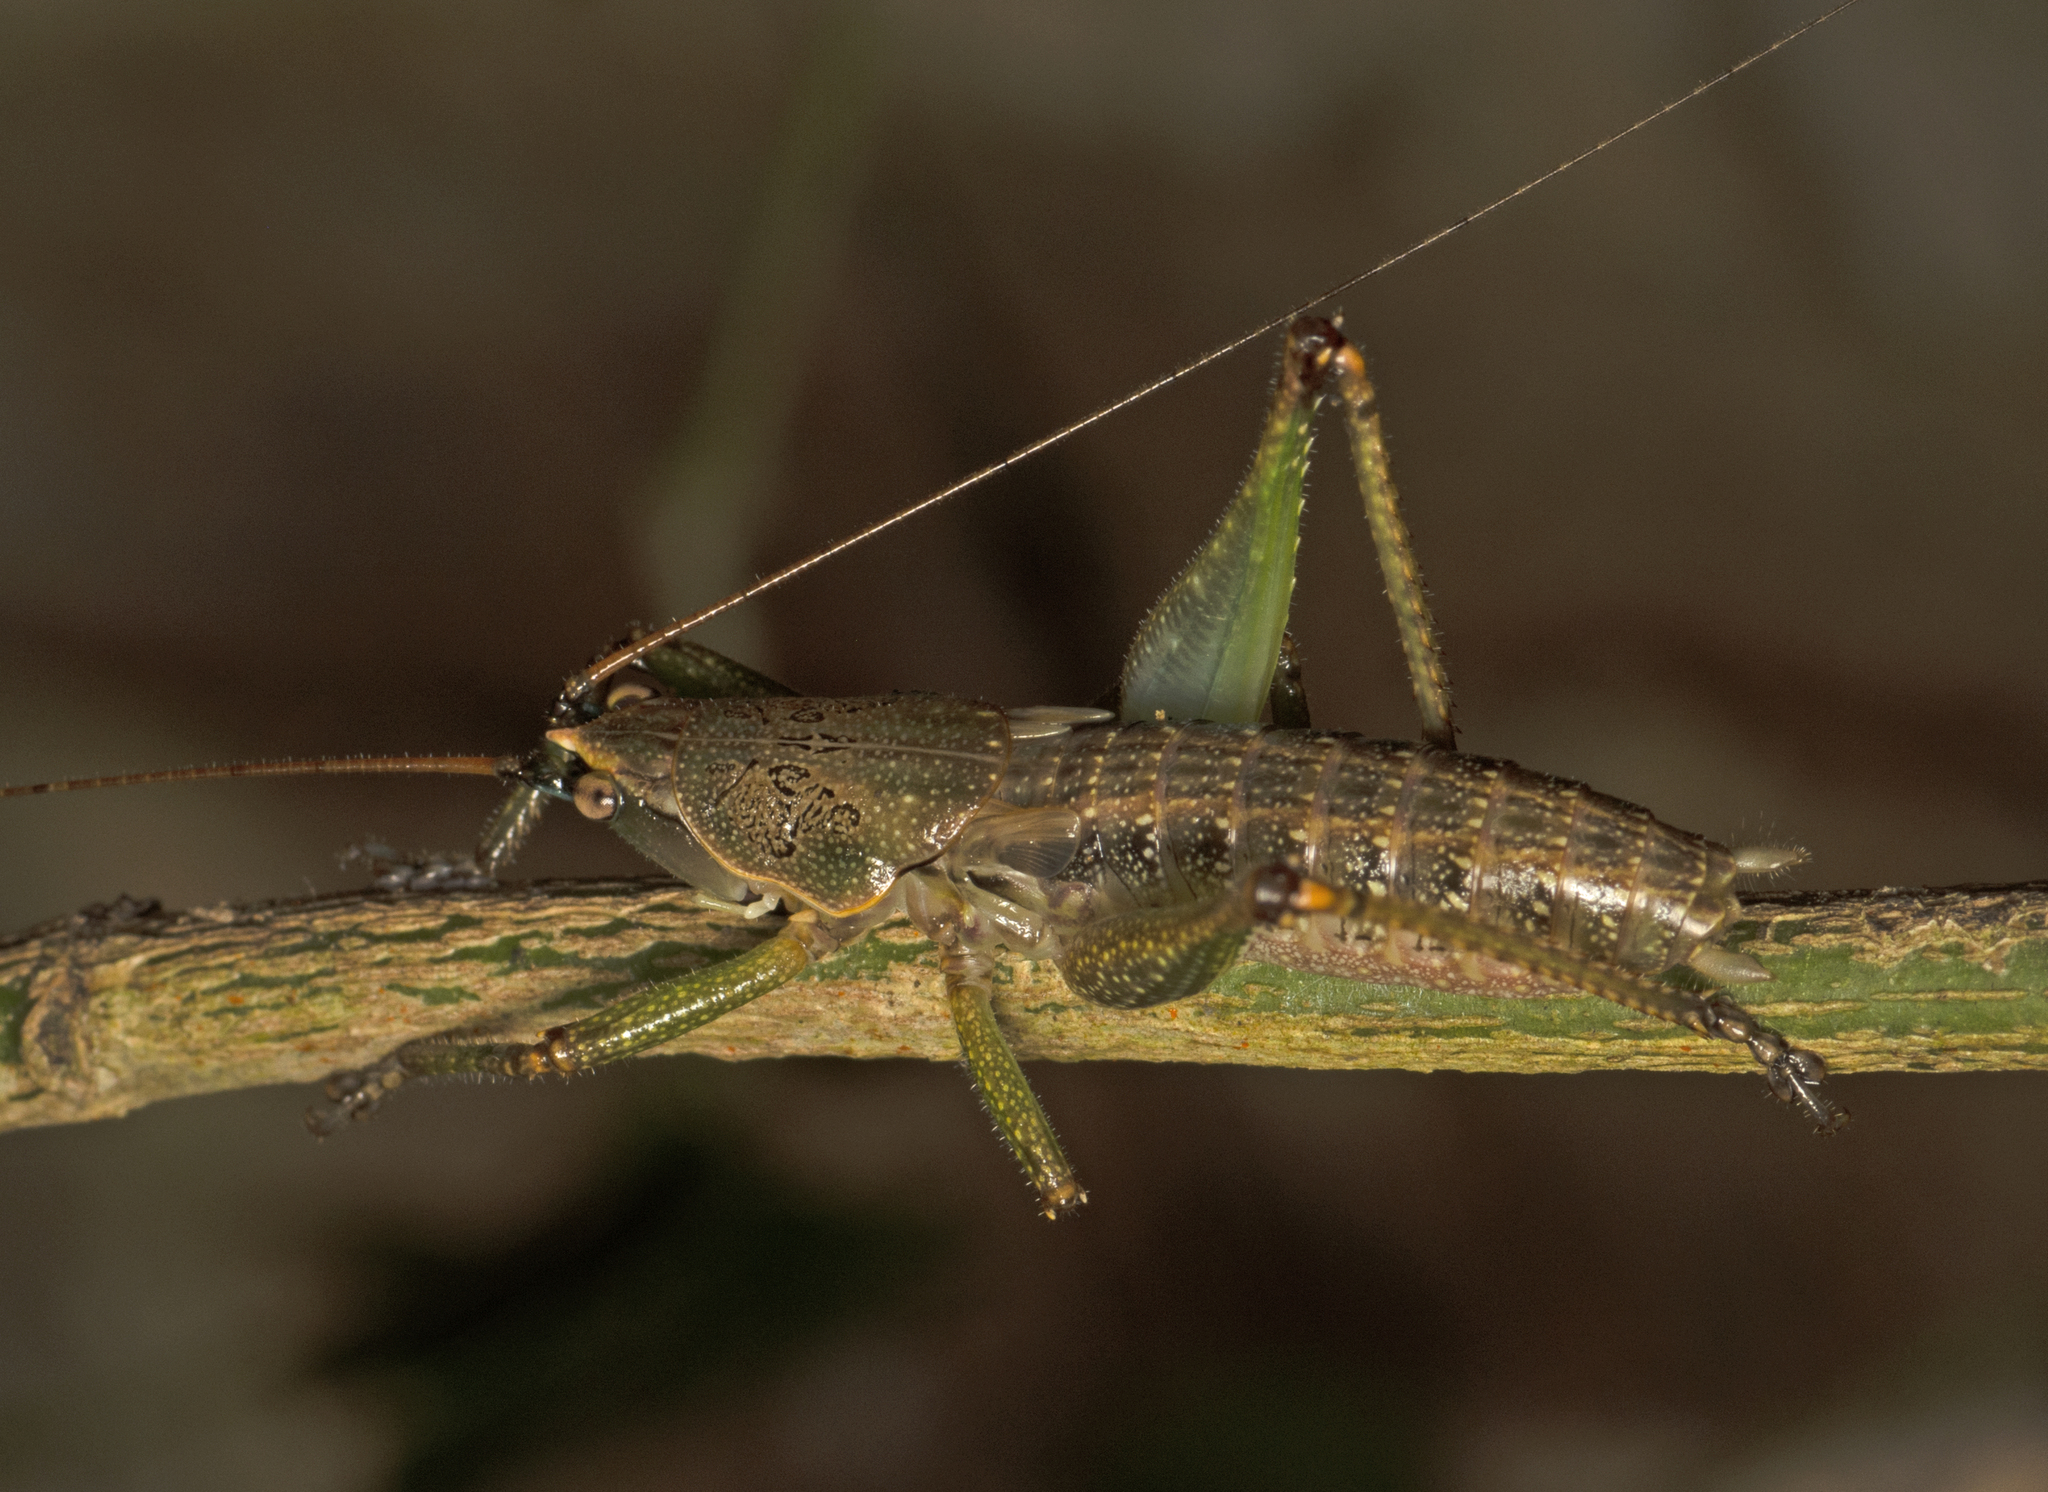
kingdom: Animalia
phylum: Arthropoda
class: Insecta
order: Orthoptera
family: Tettigoniidae
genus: Austrosalomona
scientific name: Austrosalomona falcata
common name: Olive-green coastal katydid
